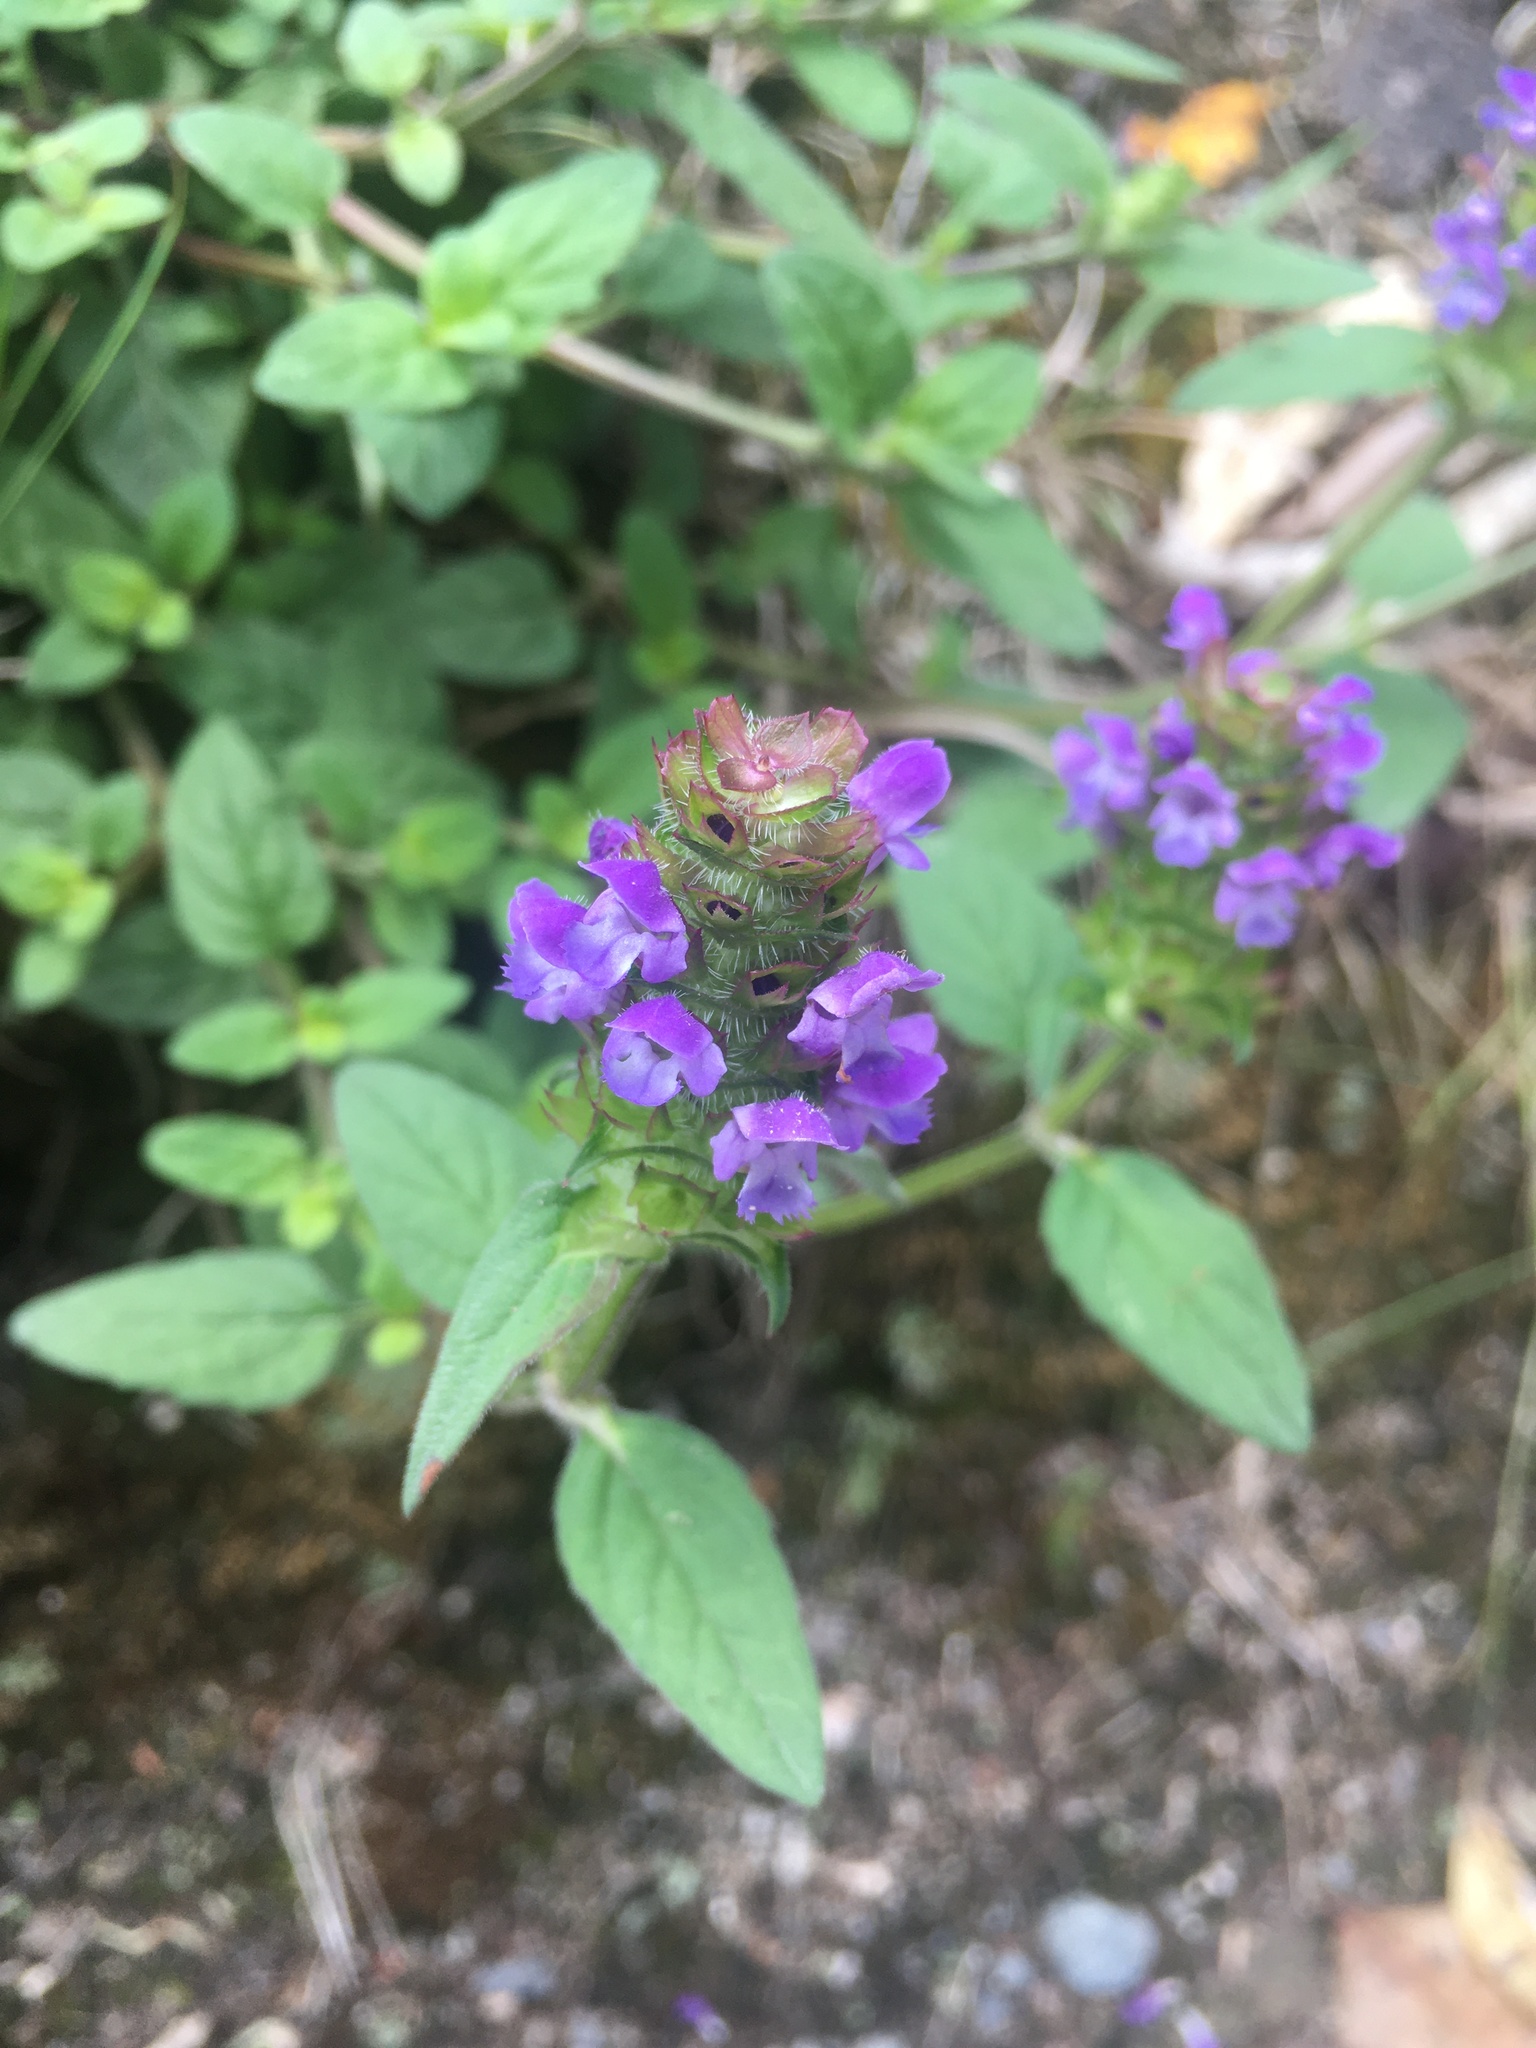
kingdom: Plantae
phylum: Tracheophyta
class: Magnoliopsida
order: Lamiales
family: Lamiaceae
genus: Prunella
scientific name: Prunella vulgaris
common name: Heal-all
